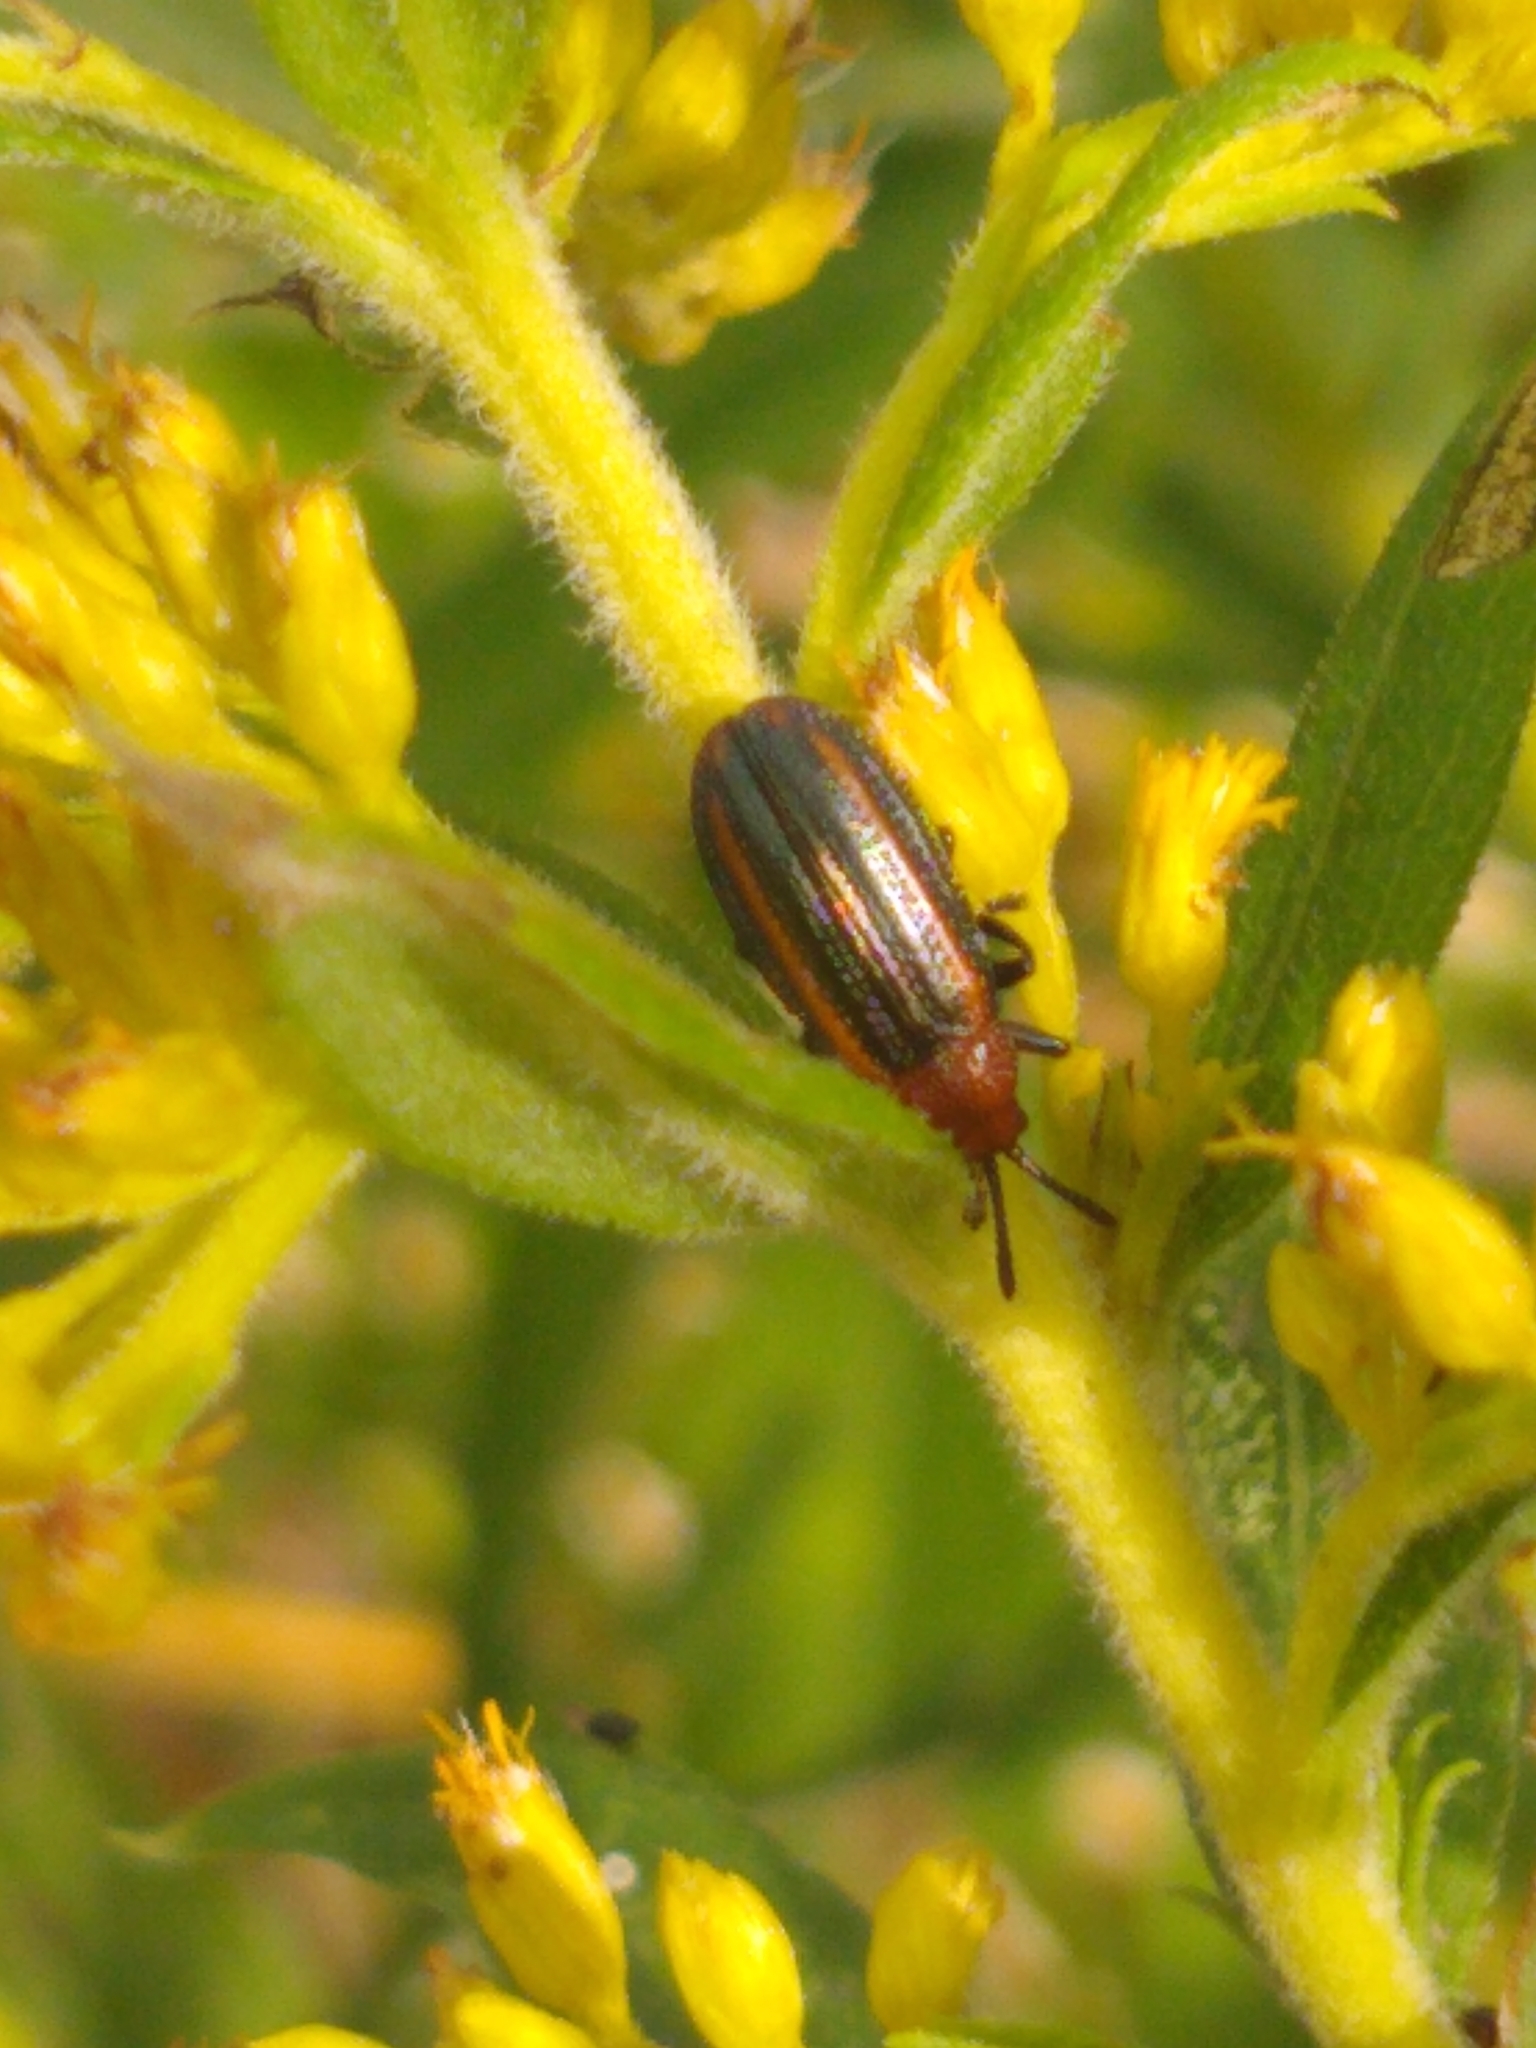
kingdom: Animalia
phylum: Arthropoda
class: Insecta
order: Coleoptera
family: Chrysomelidae
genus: Microrhopala
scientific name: Microrhopala vittata
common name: Goldenrod leaf miner beetle
